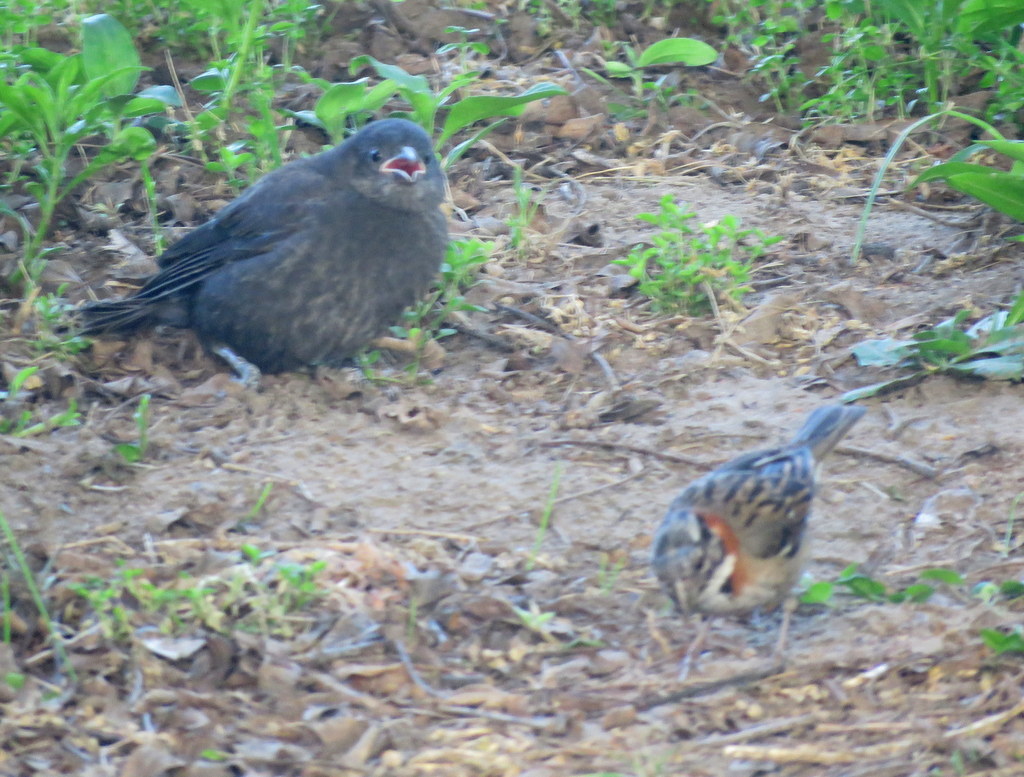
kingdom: Animalia
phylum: Chordata
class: Aves
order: Passeriformes
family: Icteridae
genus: Molothrus
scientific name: Molothrus bonariensis
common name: Shiny cowbird
